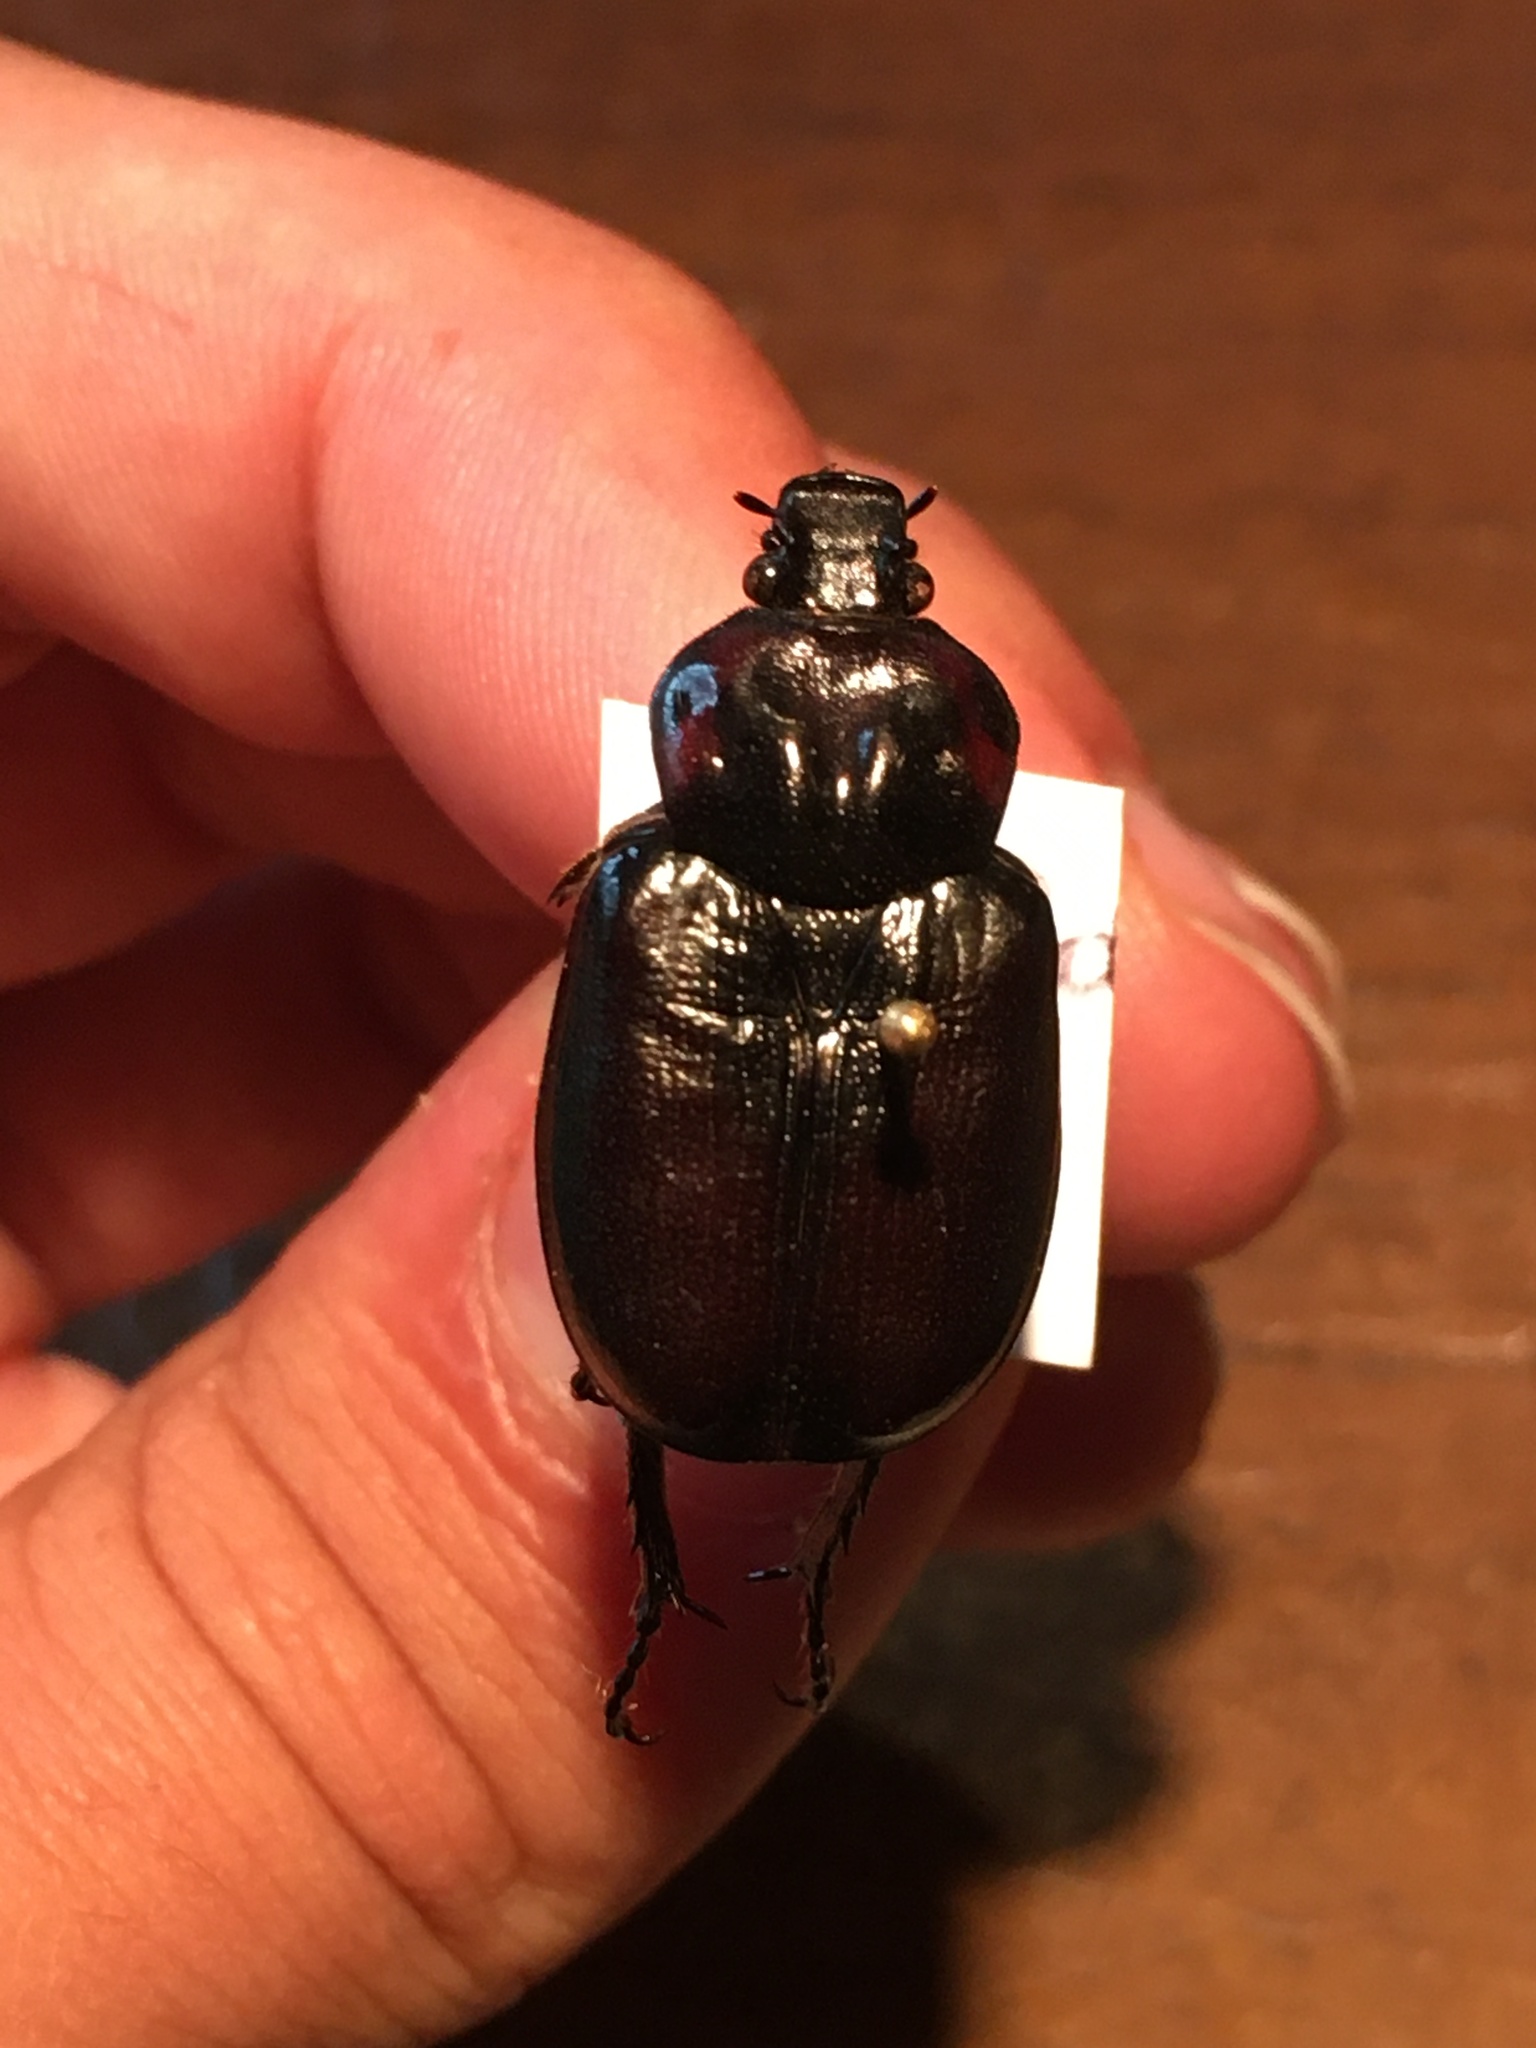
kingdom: Animalia
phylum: Arthropoda
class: Insecta
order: Coleoptera
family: Scarabaeidae
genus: Osmoderma
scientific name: Osmoderma eremicola
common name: Hermit flower beetle
